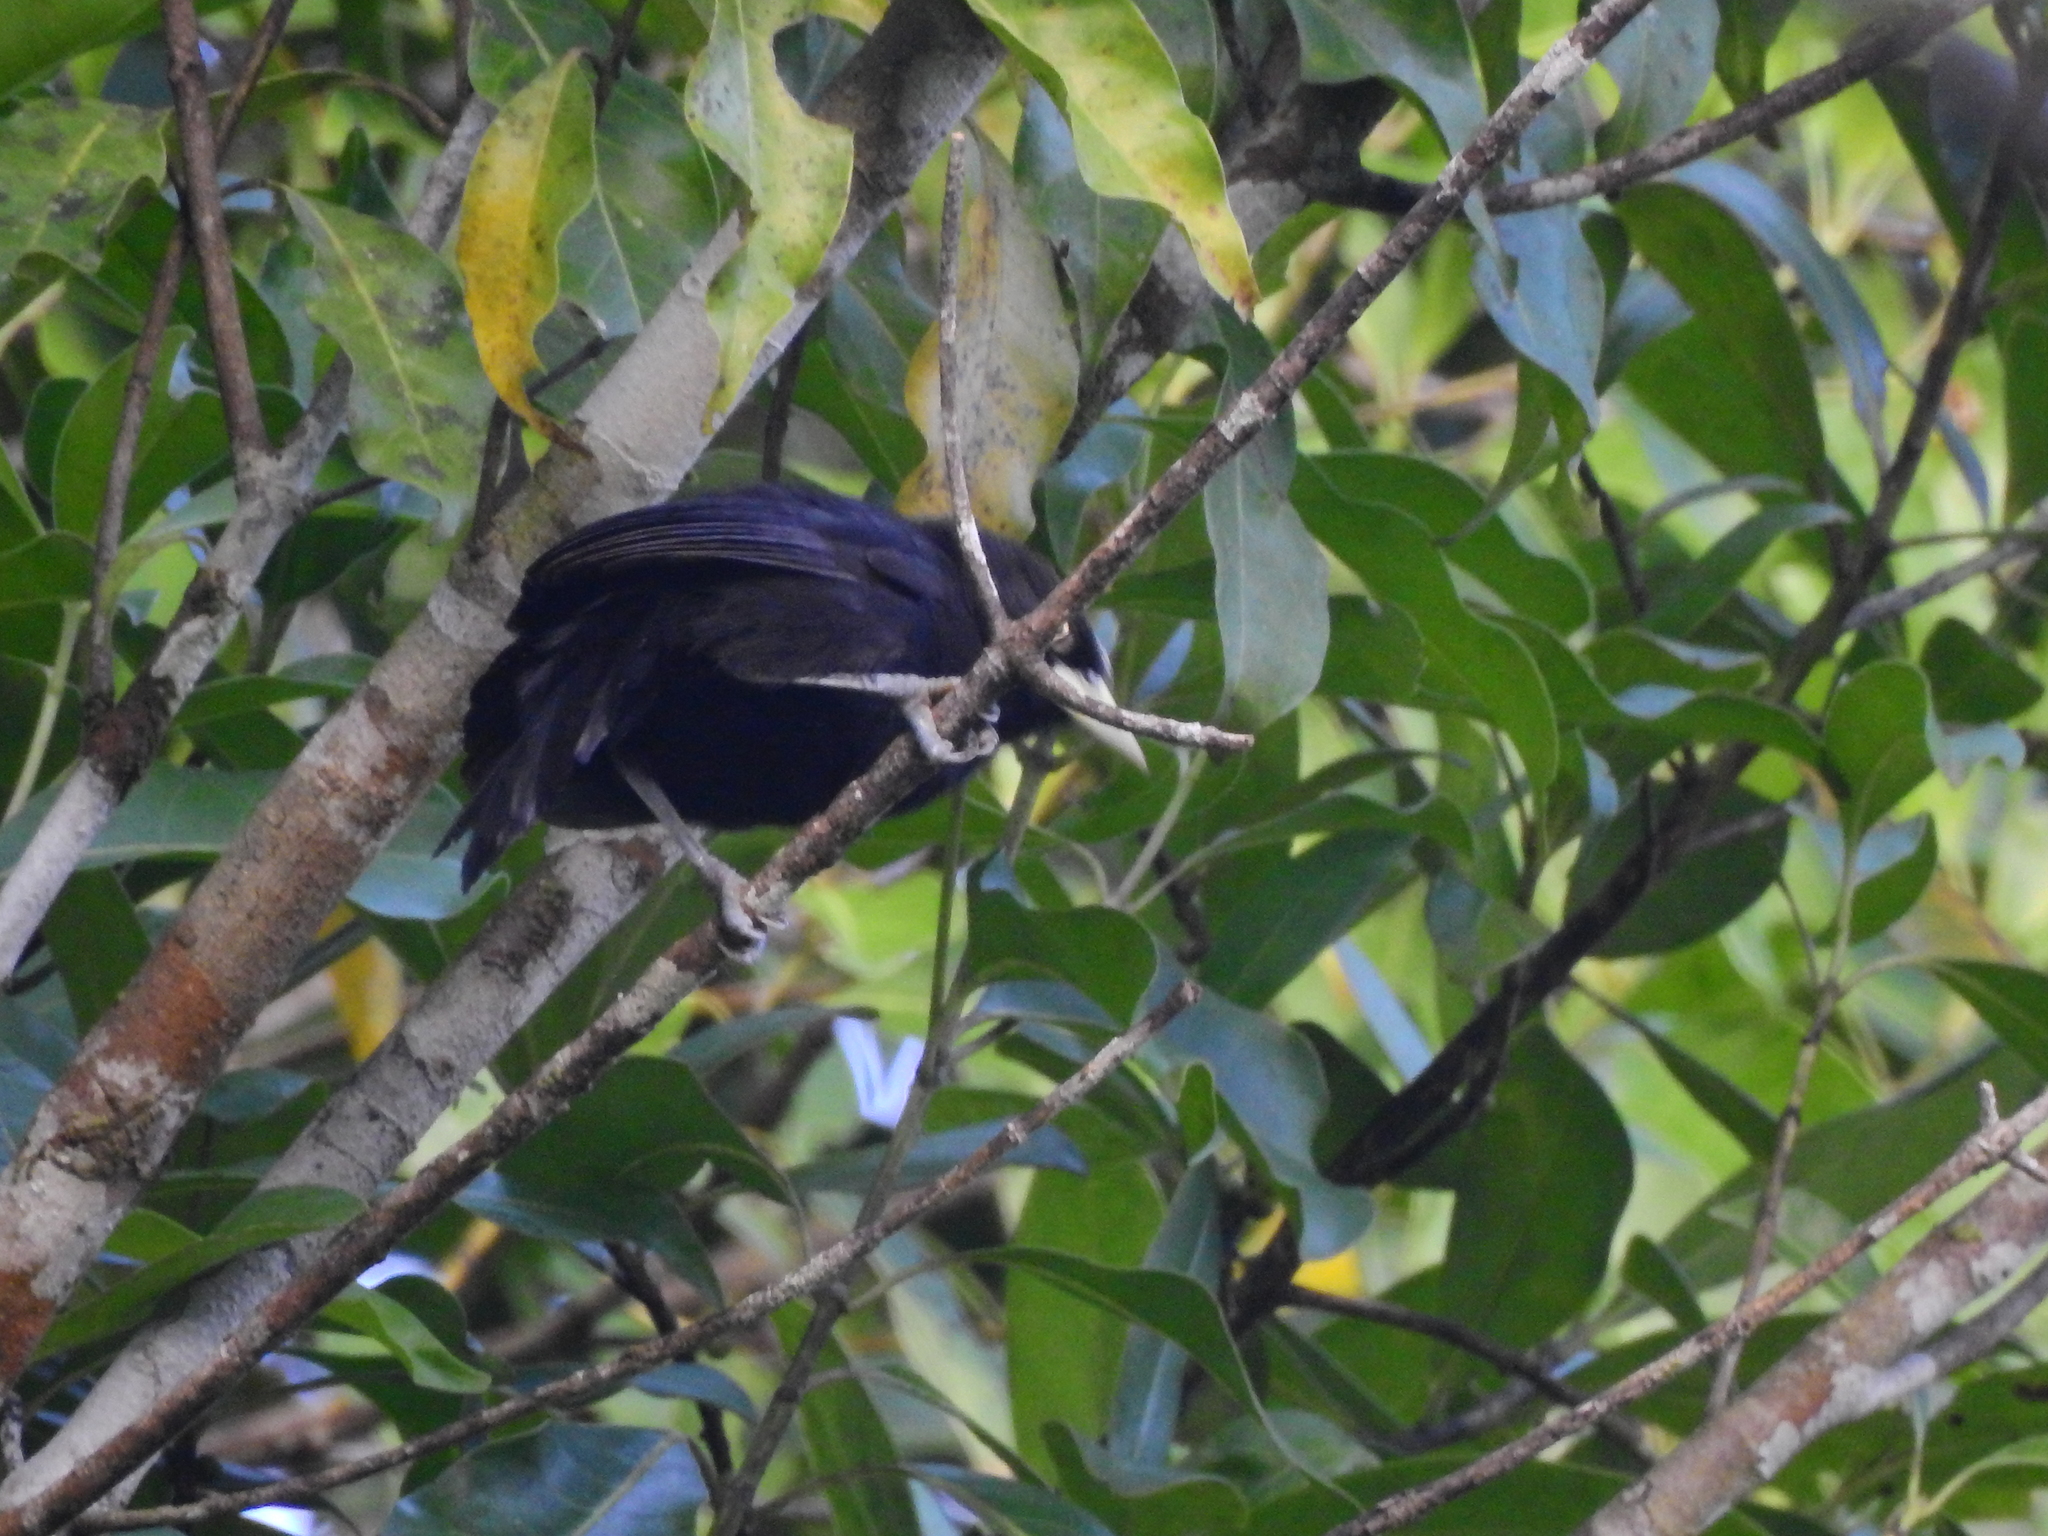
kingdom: Animalia
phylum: Chordata
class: Aves
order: Passeriformes
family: Icteridae
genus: Amblycercus
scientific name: Amblycercus holosericeus
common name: Yellow-billed cacique
